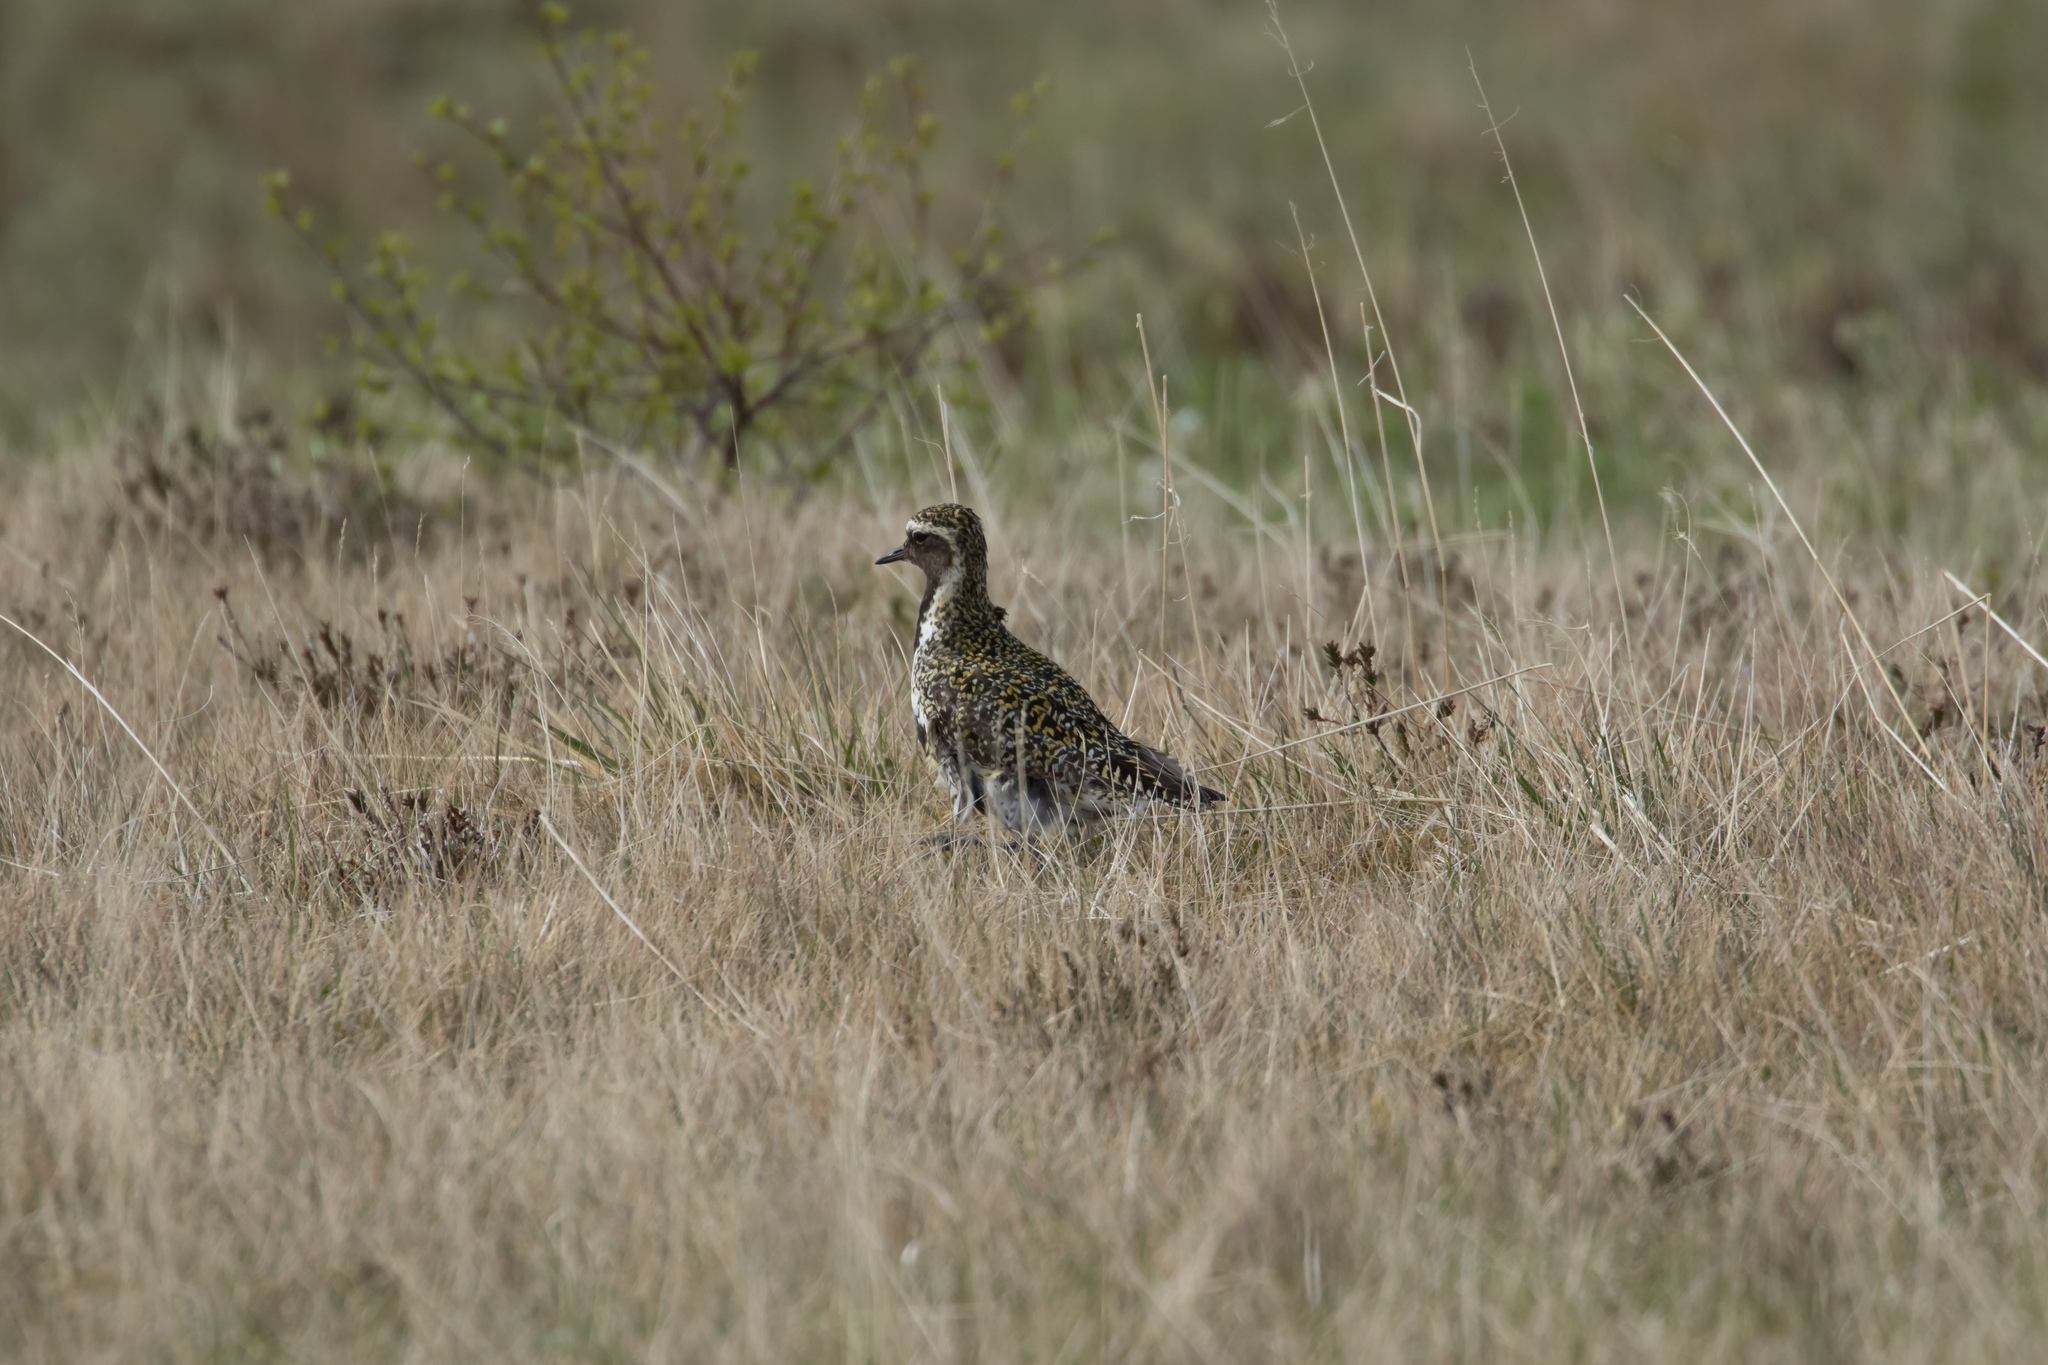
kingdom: Animalia
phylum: Chordata
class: Aves
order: Charadriiformes
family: Charadriidae
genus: Pluvialis
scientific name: Pluvialis apricaria
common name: European golden plover
